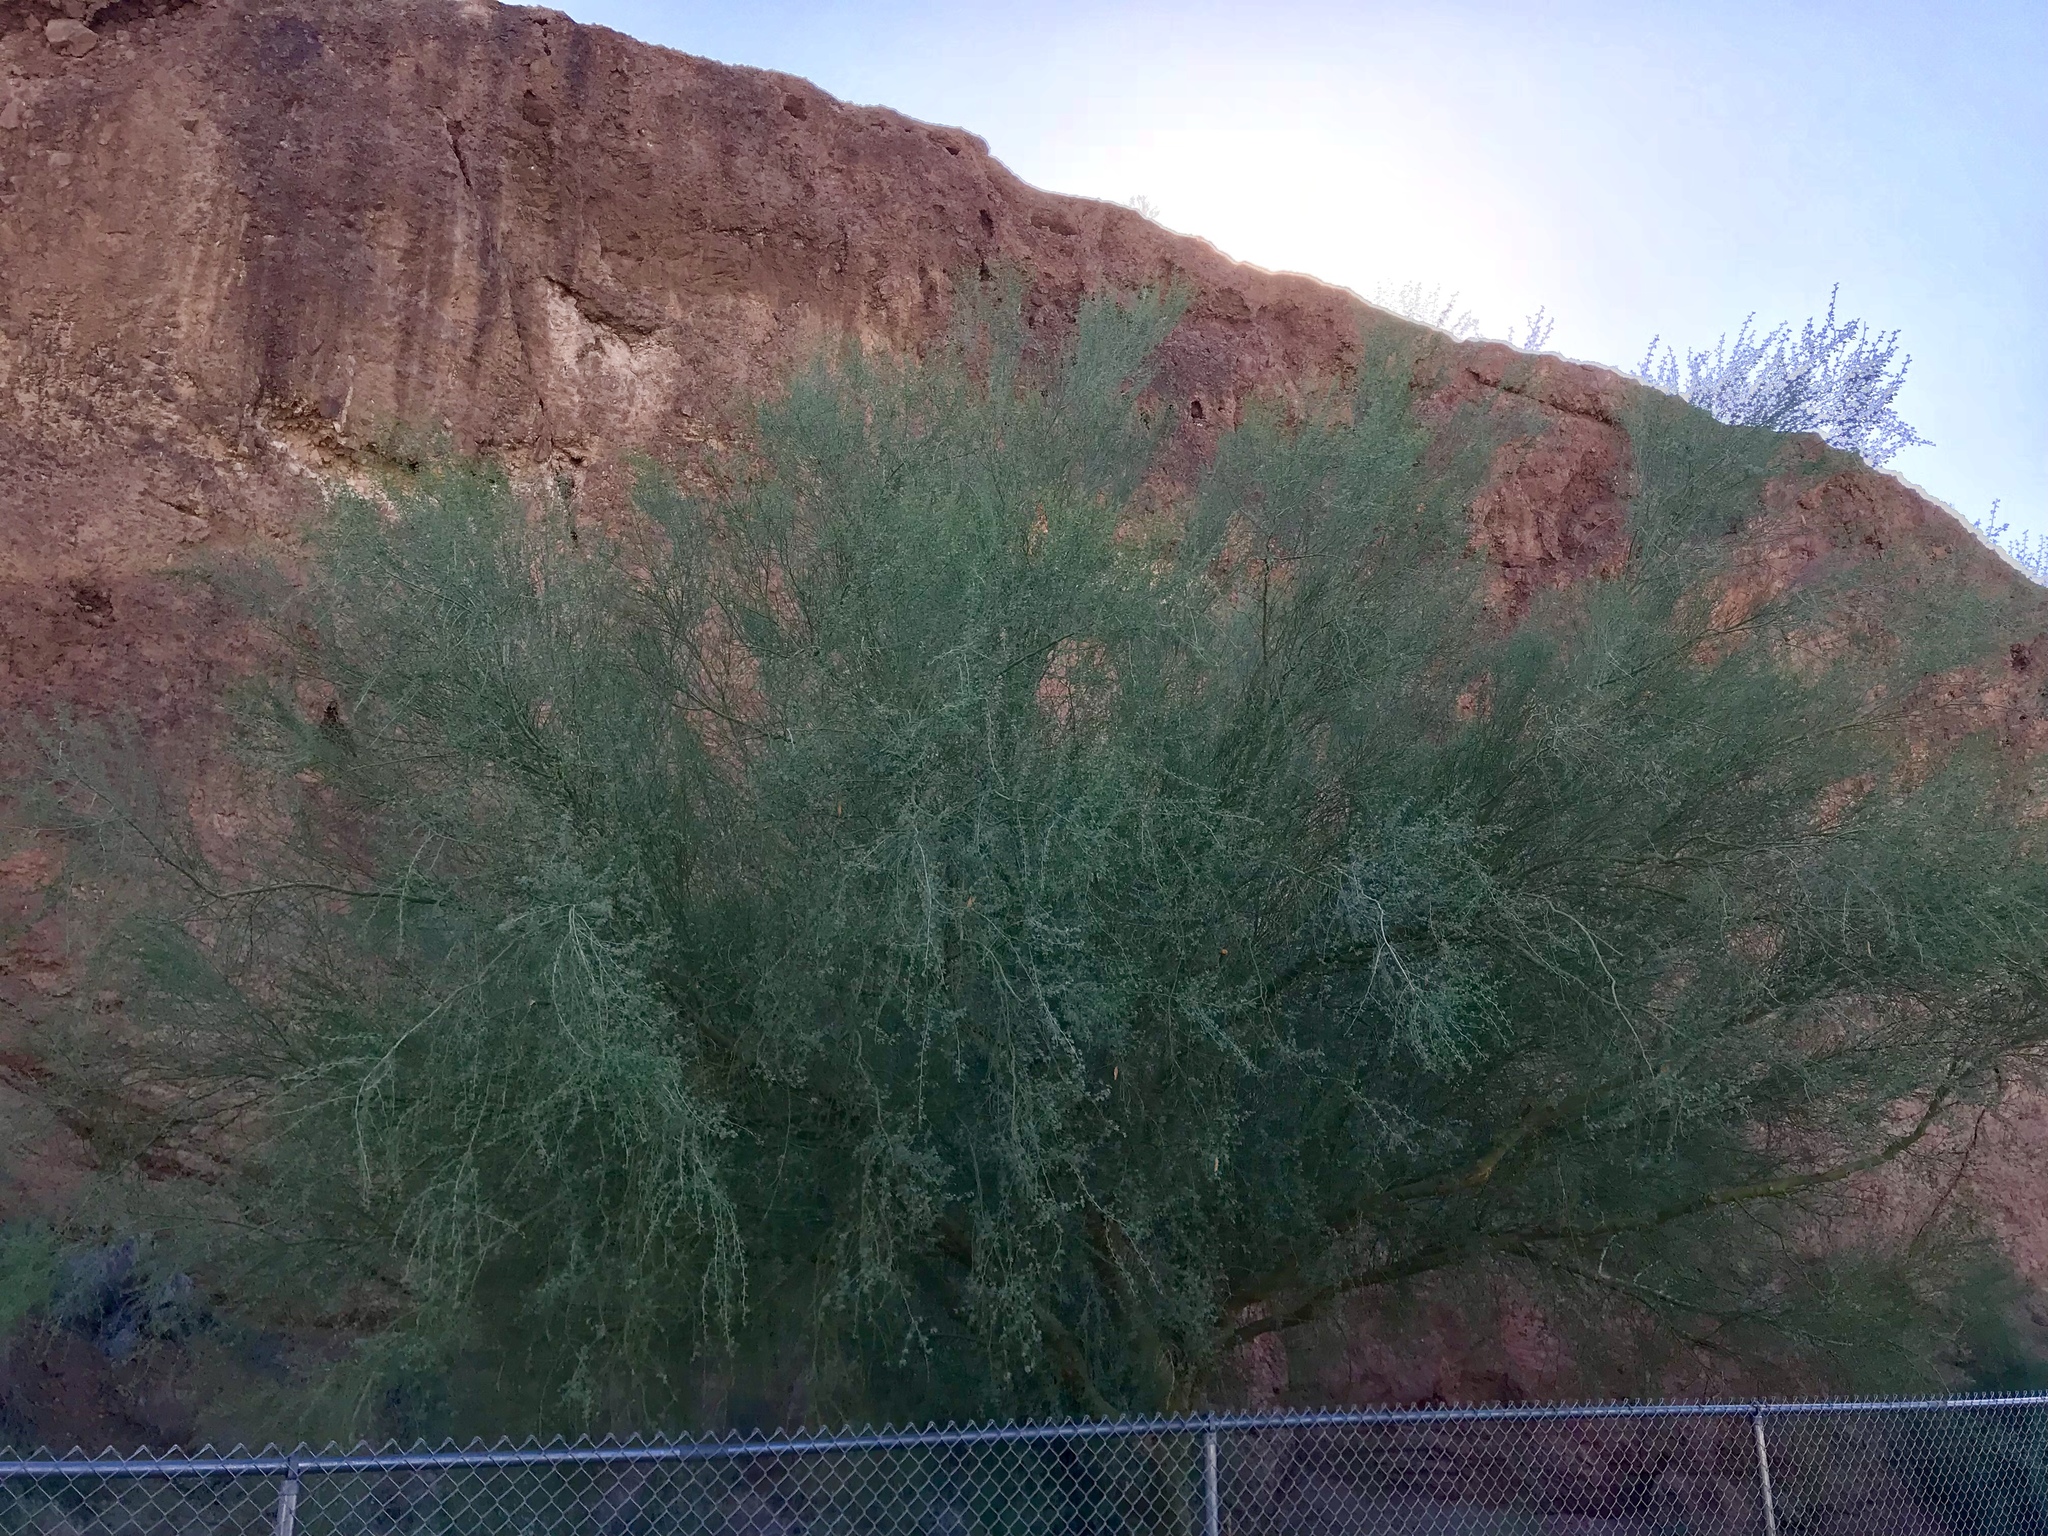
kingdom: Plantae
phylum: Tracheophyta
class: Magnoliopsida
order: Fabales
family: Fabaceae
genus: Parkinsonia
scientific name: Parkinsonia florida
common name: Blue paloverde
